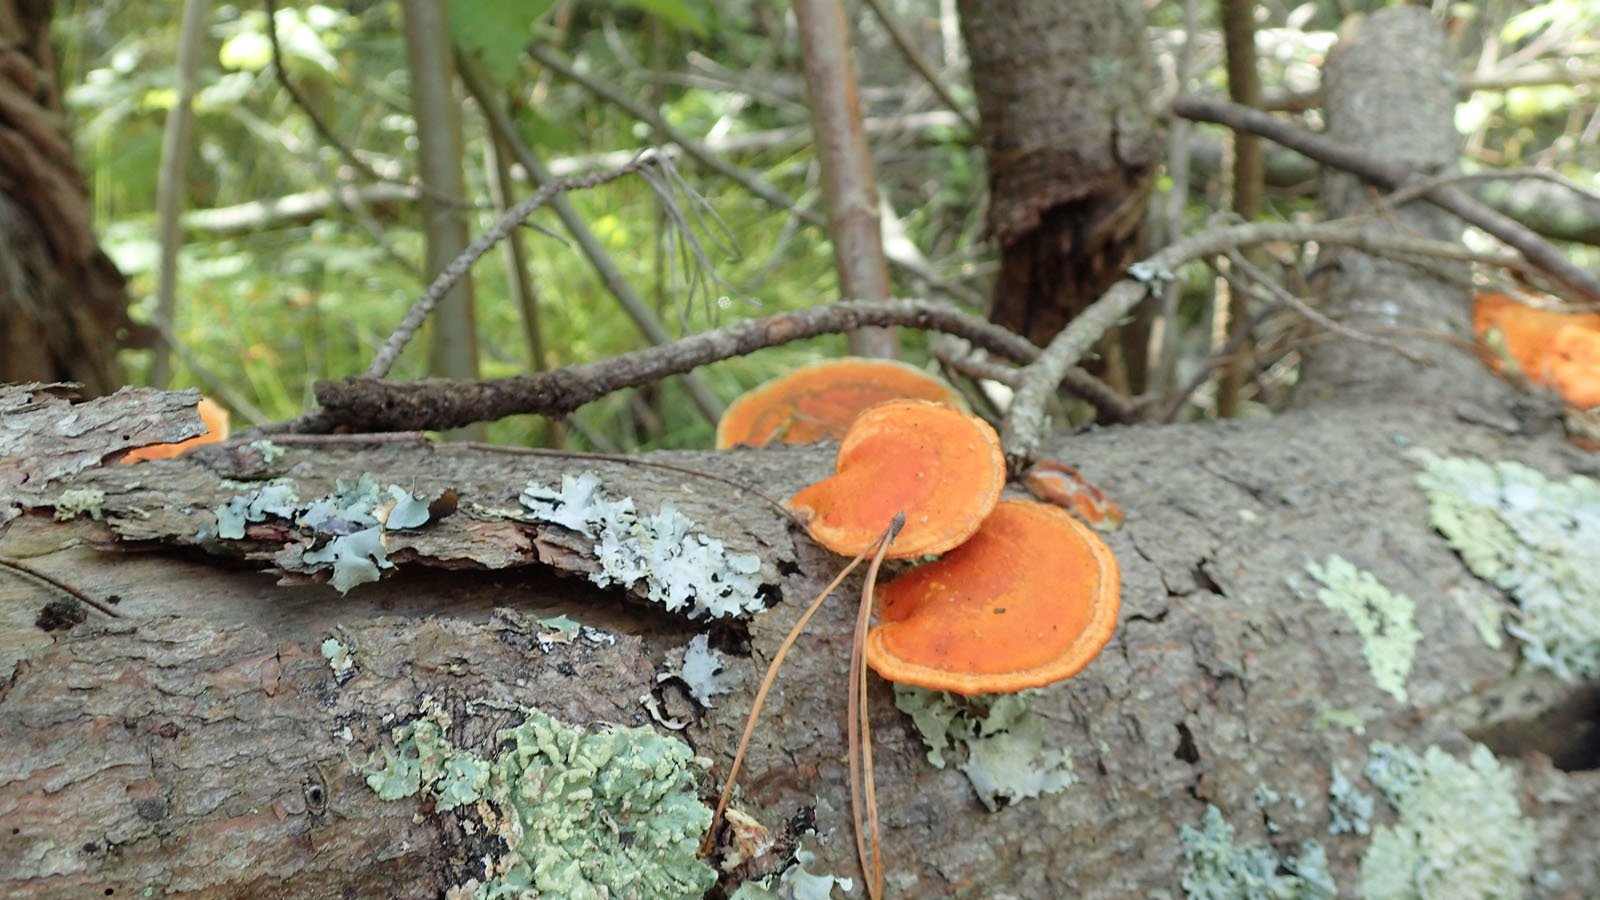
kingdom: Fungi
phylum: Basidiomycota
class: Agaricomycetes
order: Polyporales
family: Polyporaceae
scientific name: Polyporaceae
